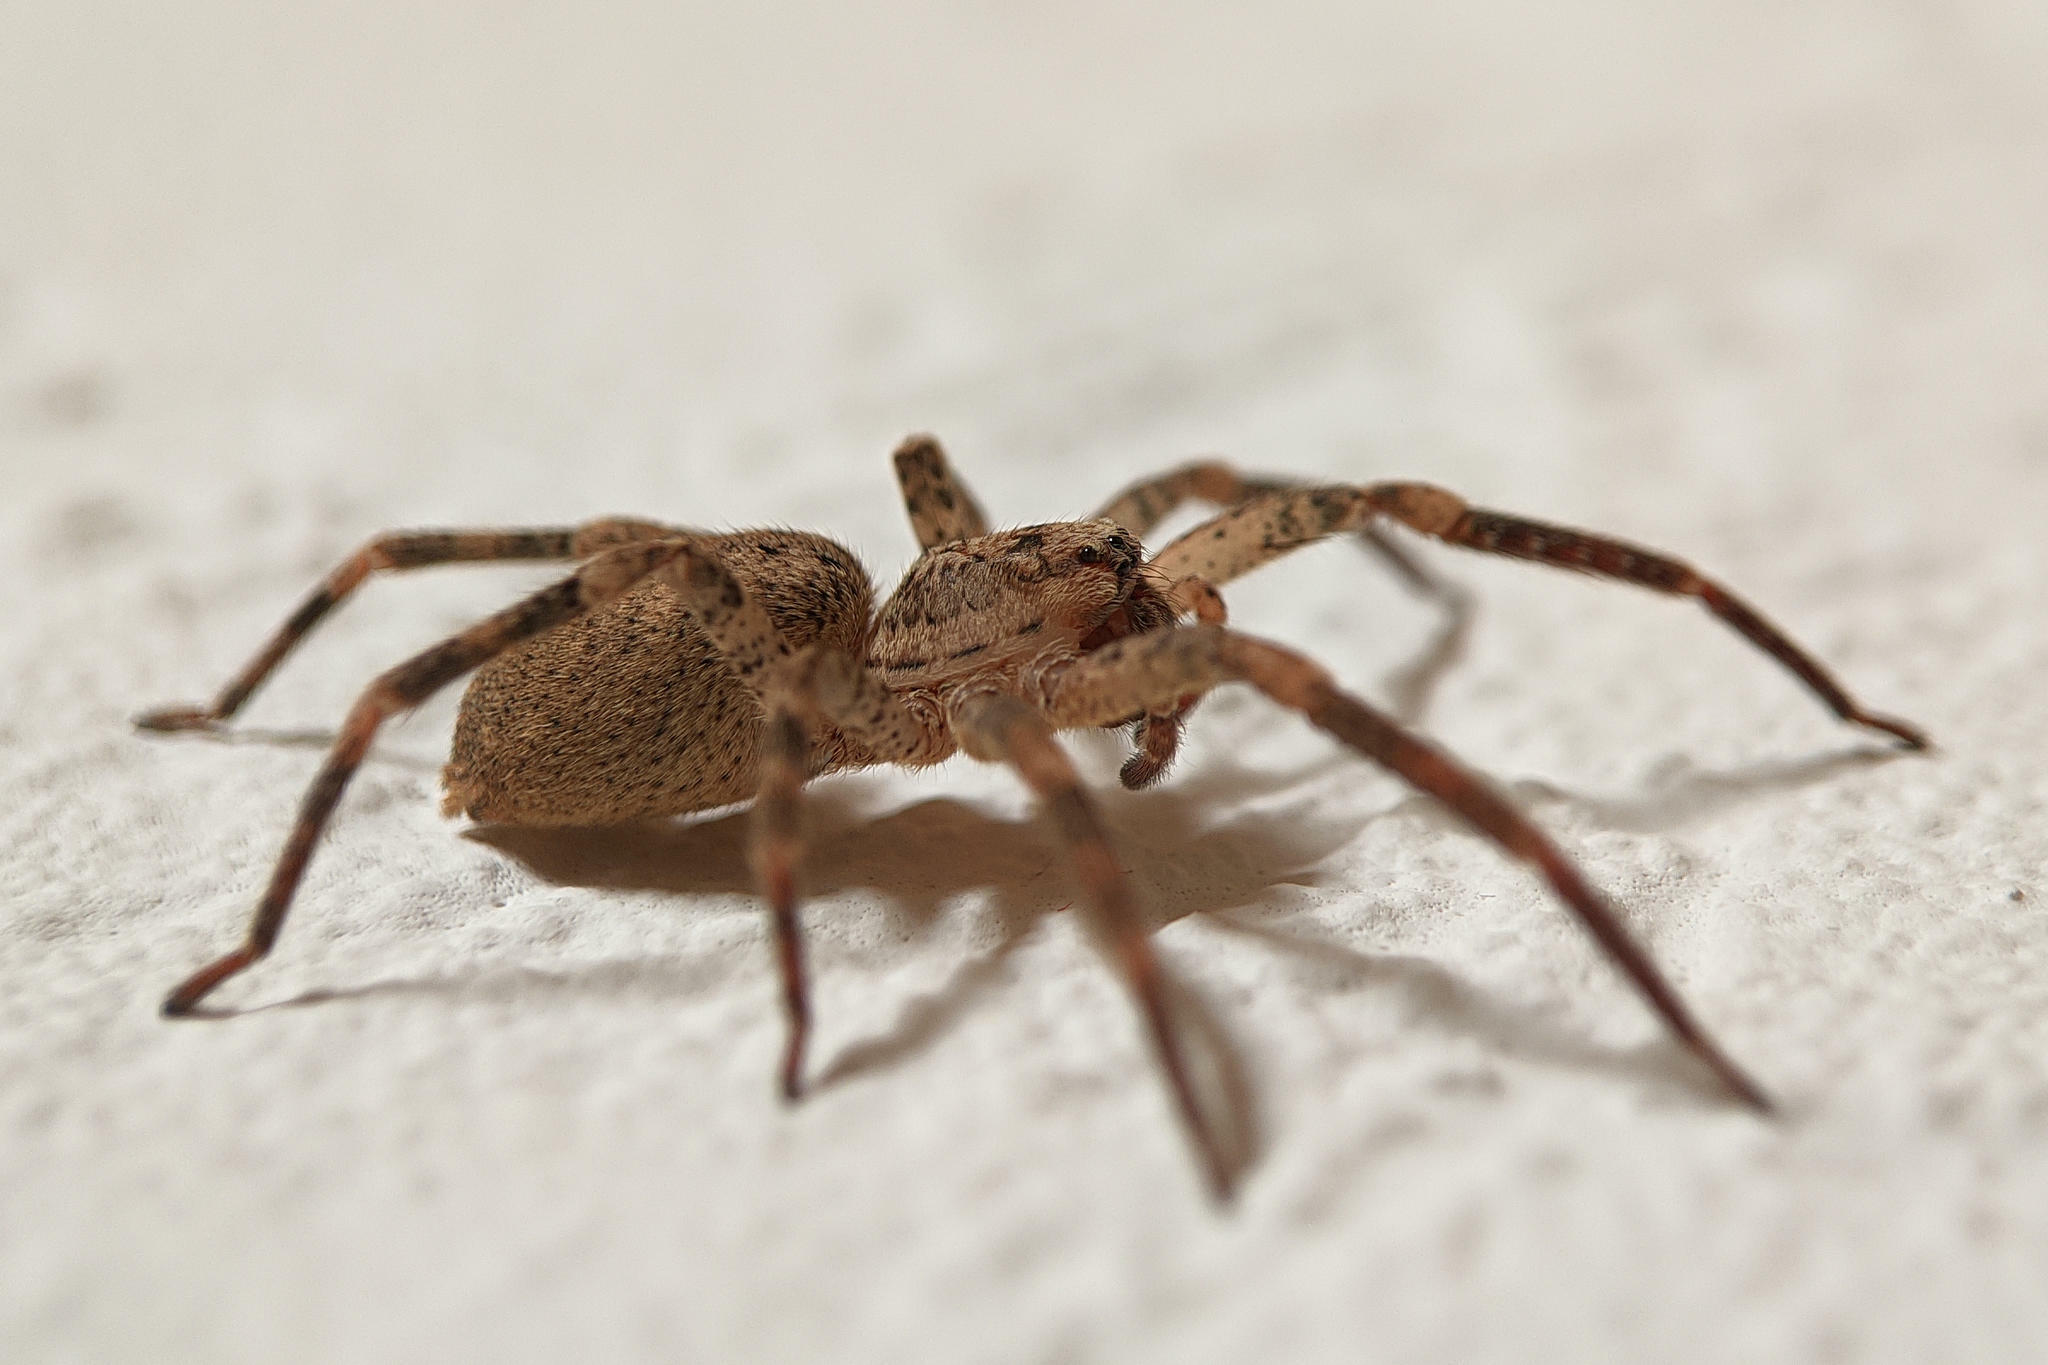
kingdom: Animalia
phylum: Arthropoda
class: Arachnida
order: Araneae
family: Zoropsidae
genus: Zoropsis
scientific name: Zoropsis spinimana
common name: Zoropsid spider
